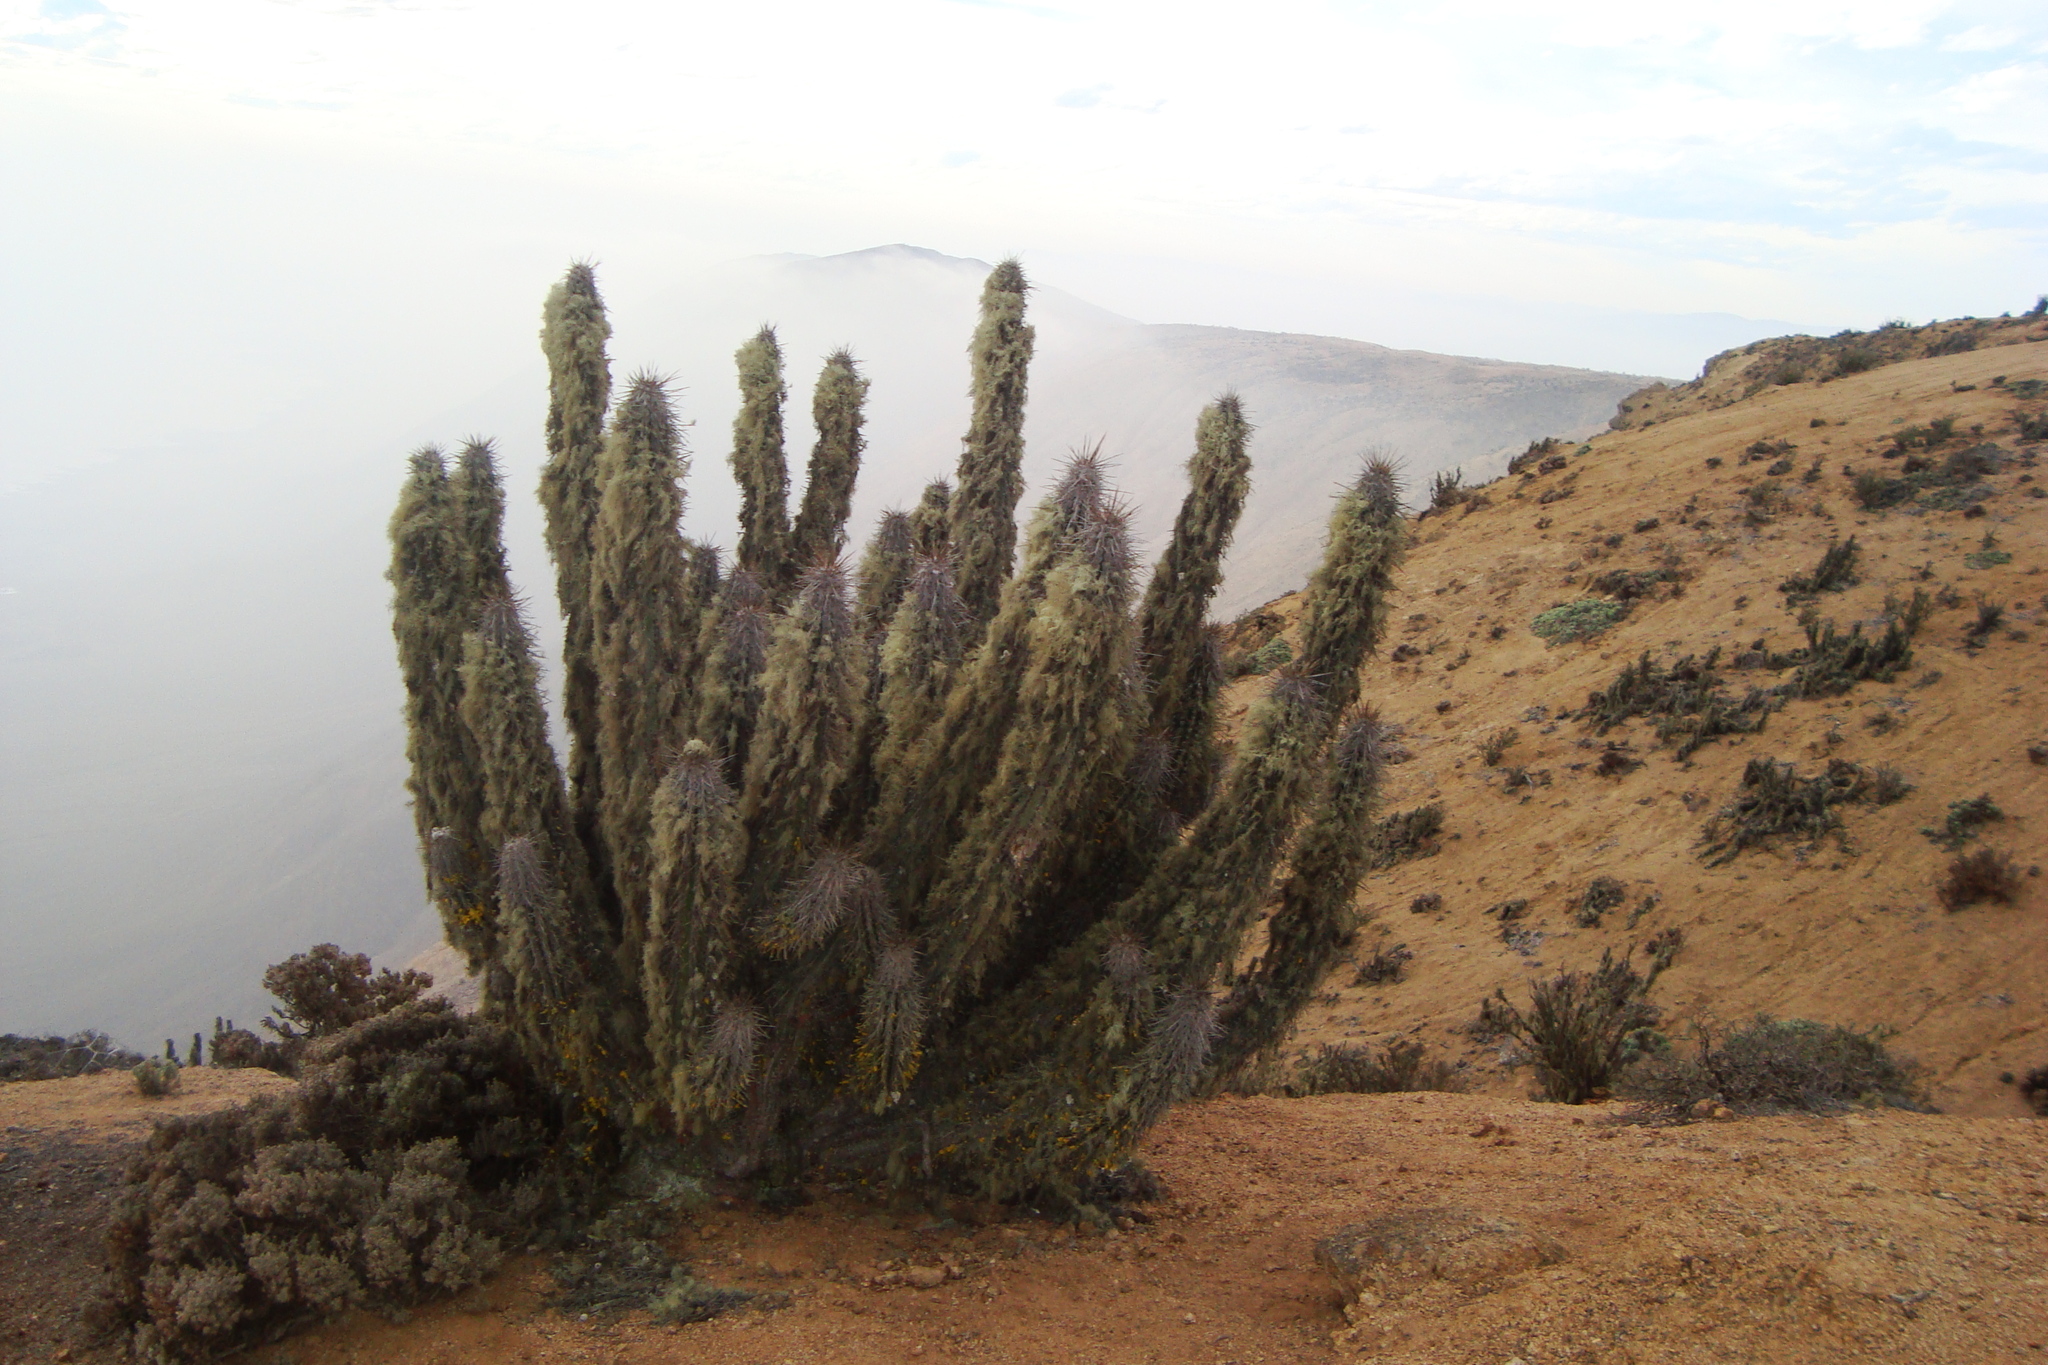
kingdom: Plantae
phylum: Tracheophyta
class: Magnoliopsida
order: Caryophyllales
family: Cactaceae
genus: Eulychnia
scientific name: Eulychnia breviflora
